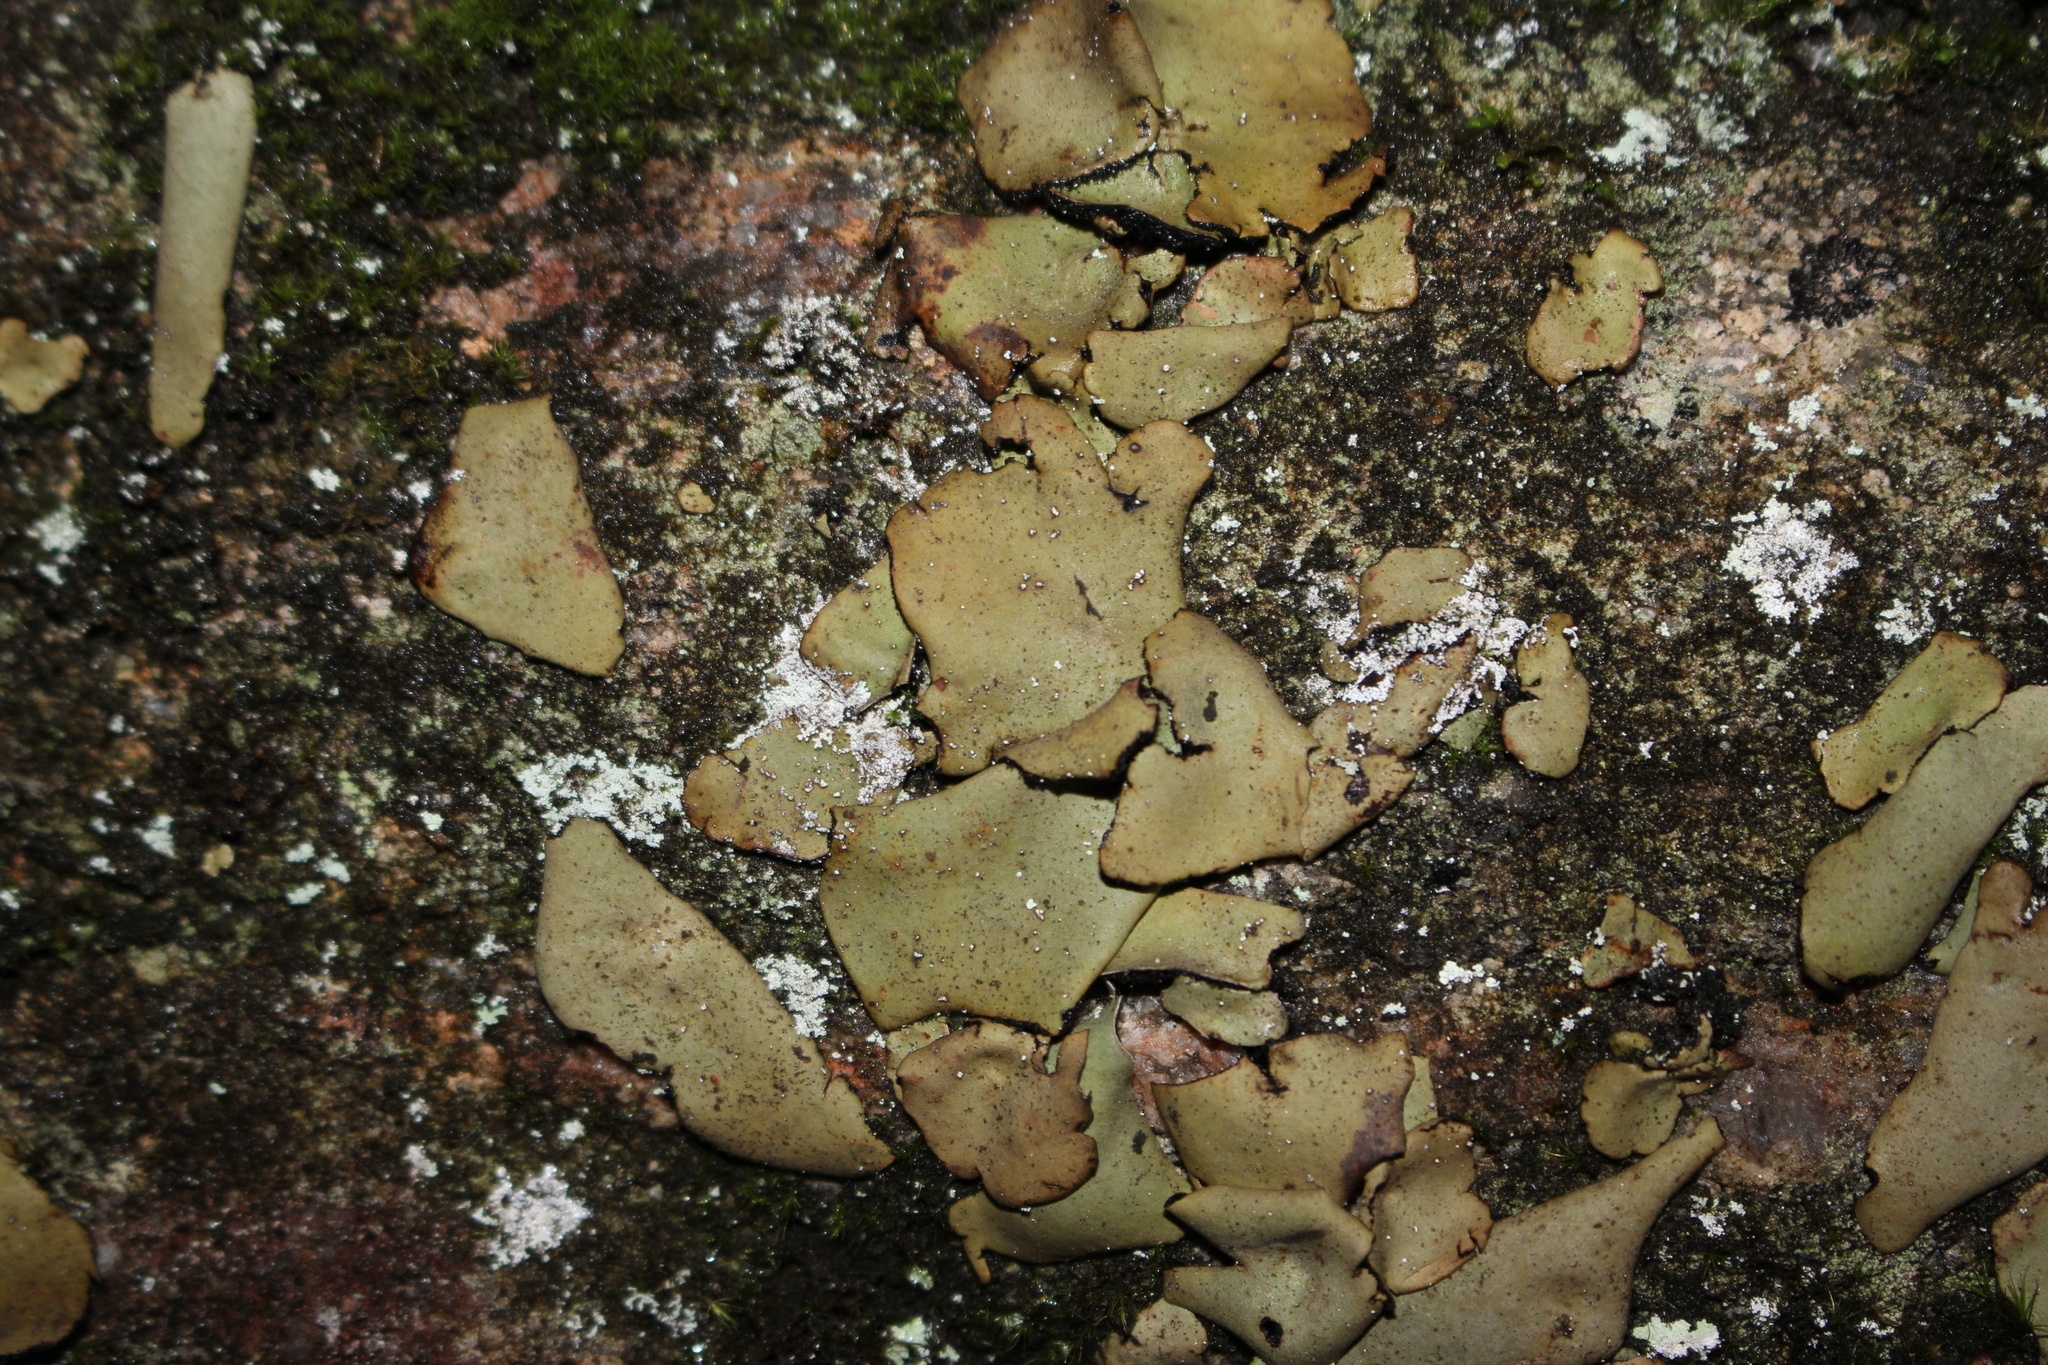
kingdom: Fungi
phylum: Ascomycota
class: Lecanoromycetes
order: Umbilicariales
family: Umbilicariaceae
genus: Umbilicaria
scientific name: Umbilicaria mammulata
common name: Smooth rock tripe
